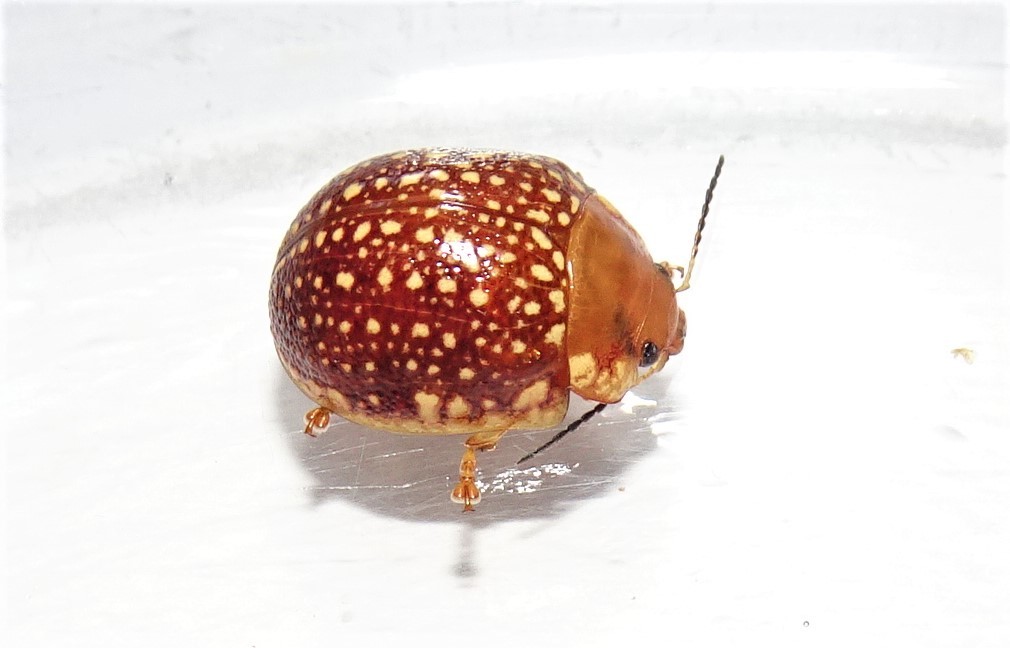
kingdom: Animalia
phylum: Arthropoda
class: Insecta
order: Coleoptera
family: Chrysomelidae
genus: Paropsis
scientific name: Paropsis
